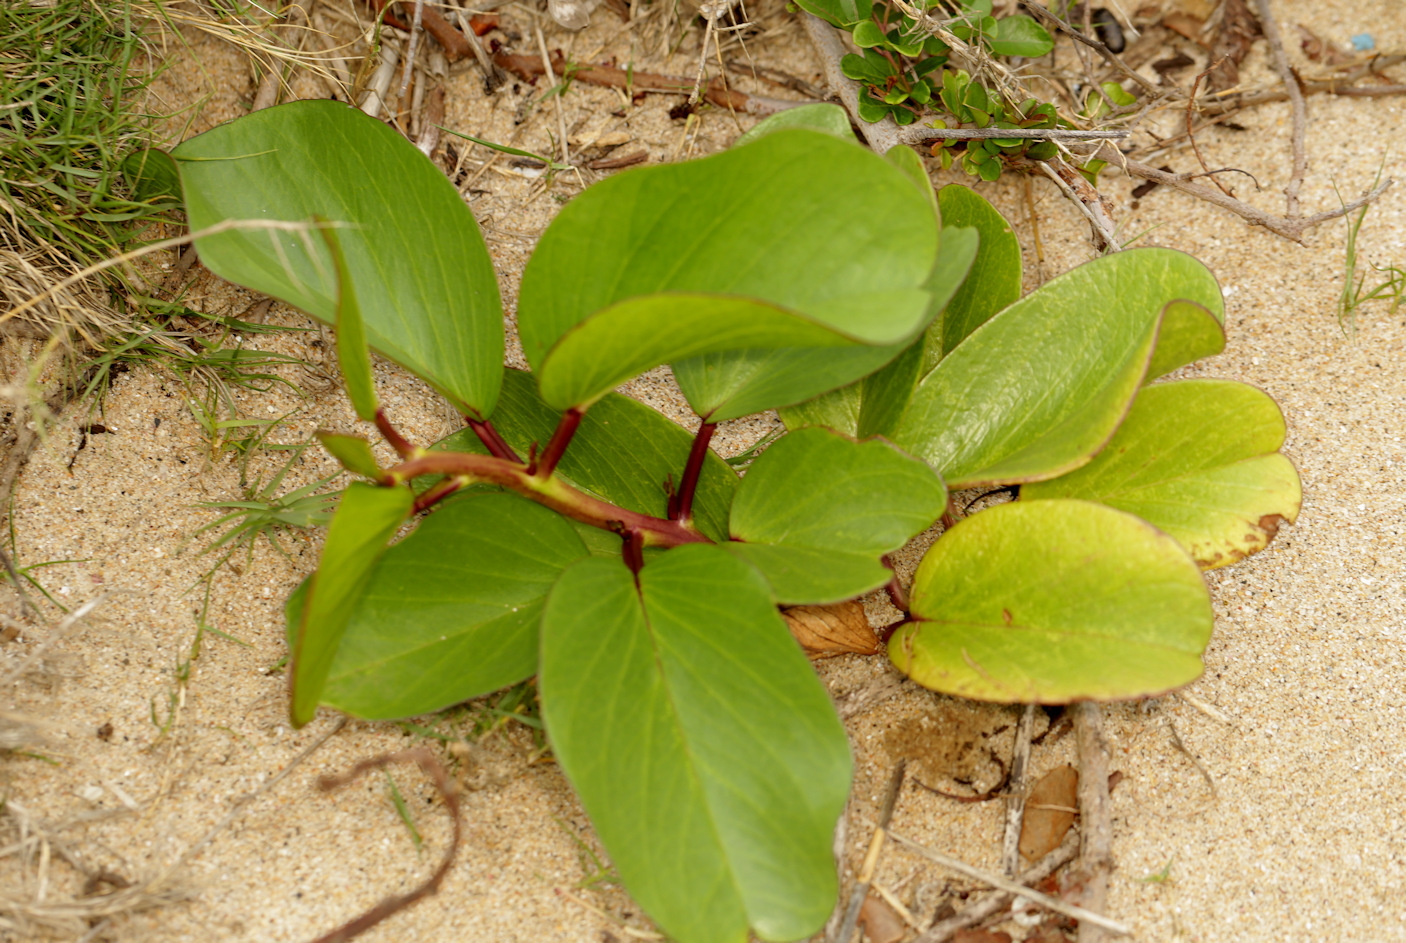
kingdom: Plantae
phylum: Tracheophyta
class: Magnoliopsida
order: Solanales
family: Convolvulaceae
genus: Ipomoea
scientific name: Ipomoea pes-caprae
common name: Beach morning glory
